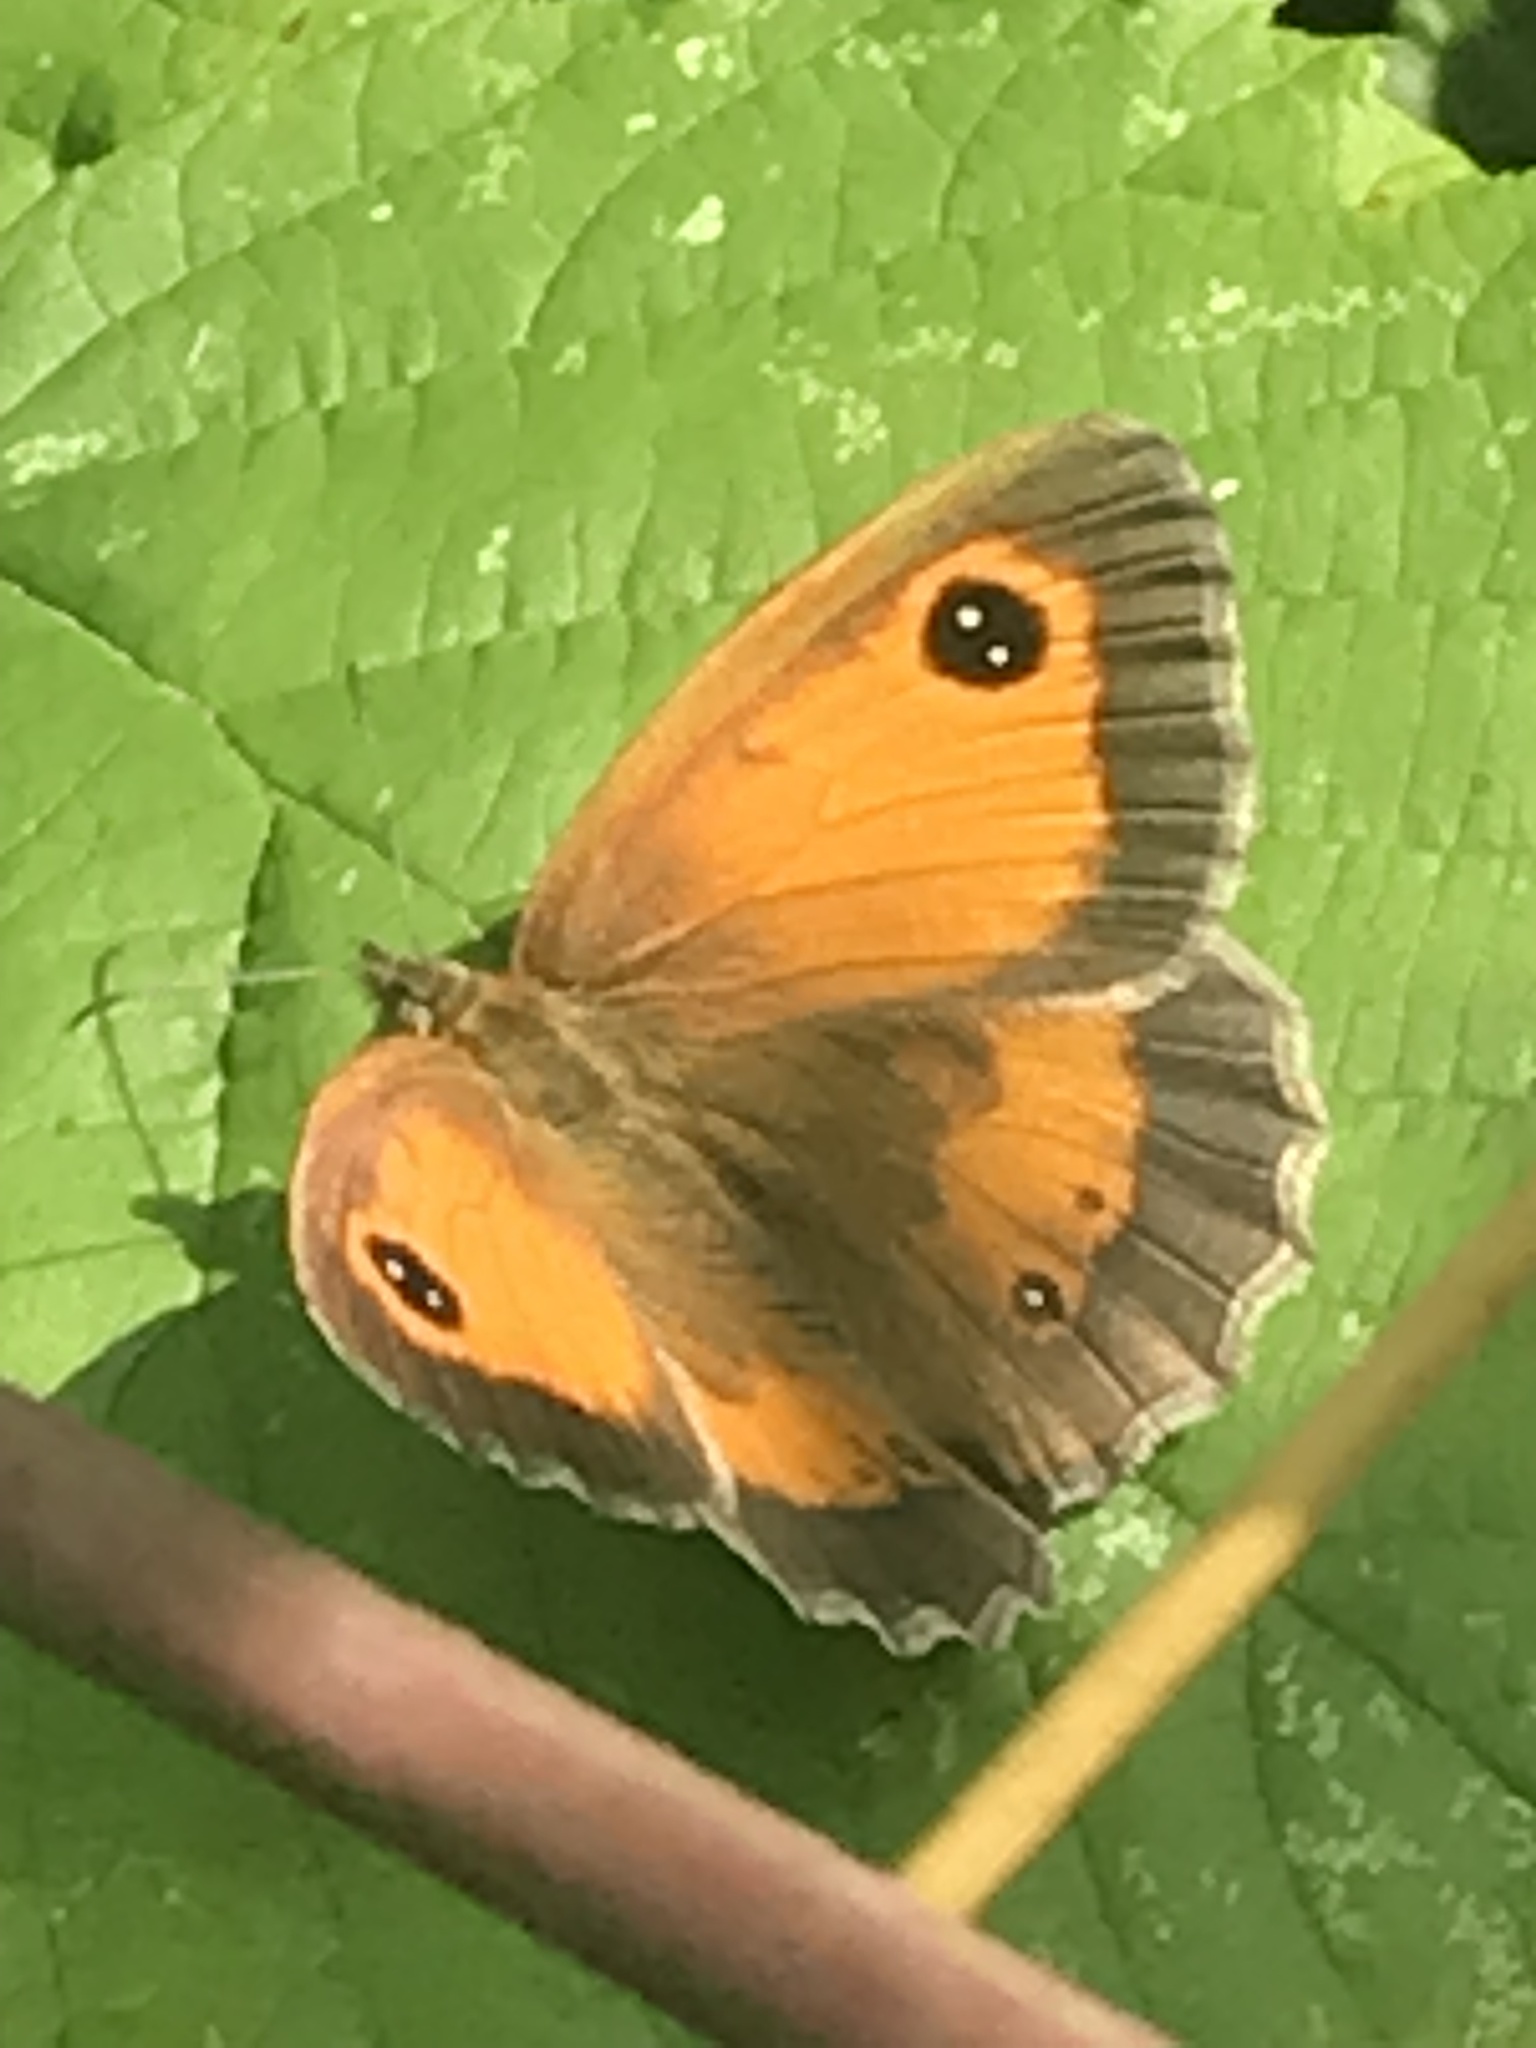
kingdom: Animalia
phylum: Arthropoda
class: Insecta
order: Lepidoptera
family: Nymphalidae
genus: Pyronia
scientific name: Pyronia tithonus
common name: Gatekeeper
